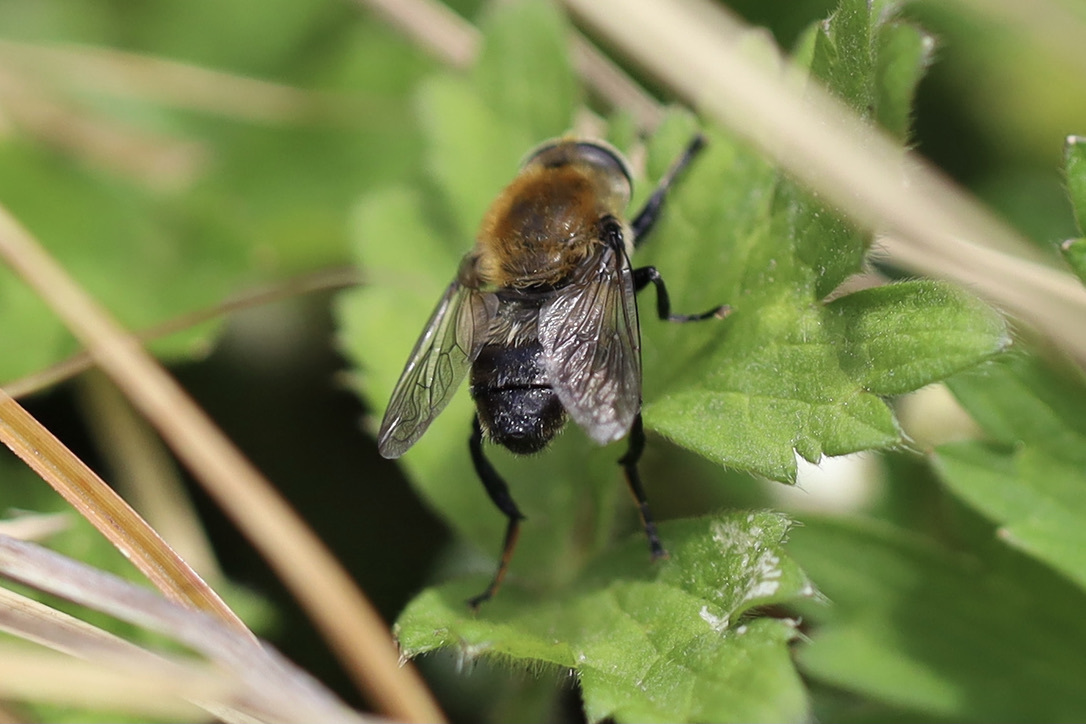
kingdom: Animalia
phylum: Arthropoda
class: Insecta
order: Diptera
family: Syrphidae
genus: Merodon
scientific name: Merodon equestris
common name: Greater bulb-fly
